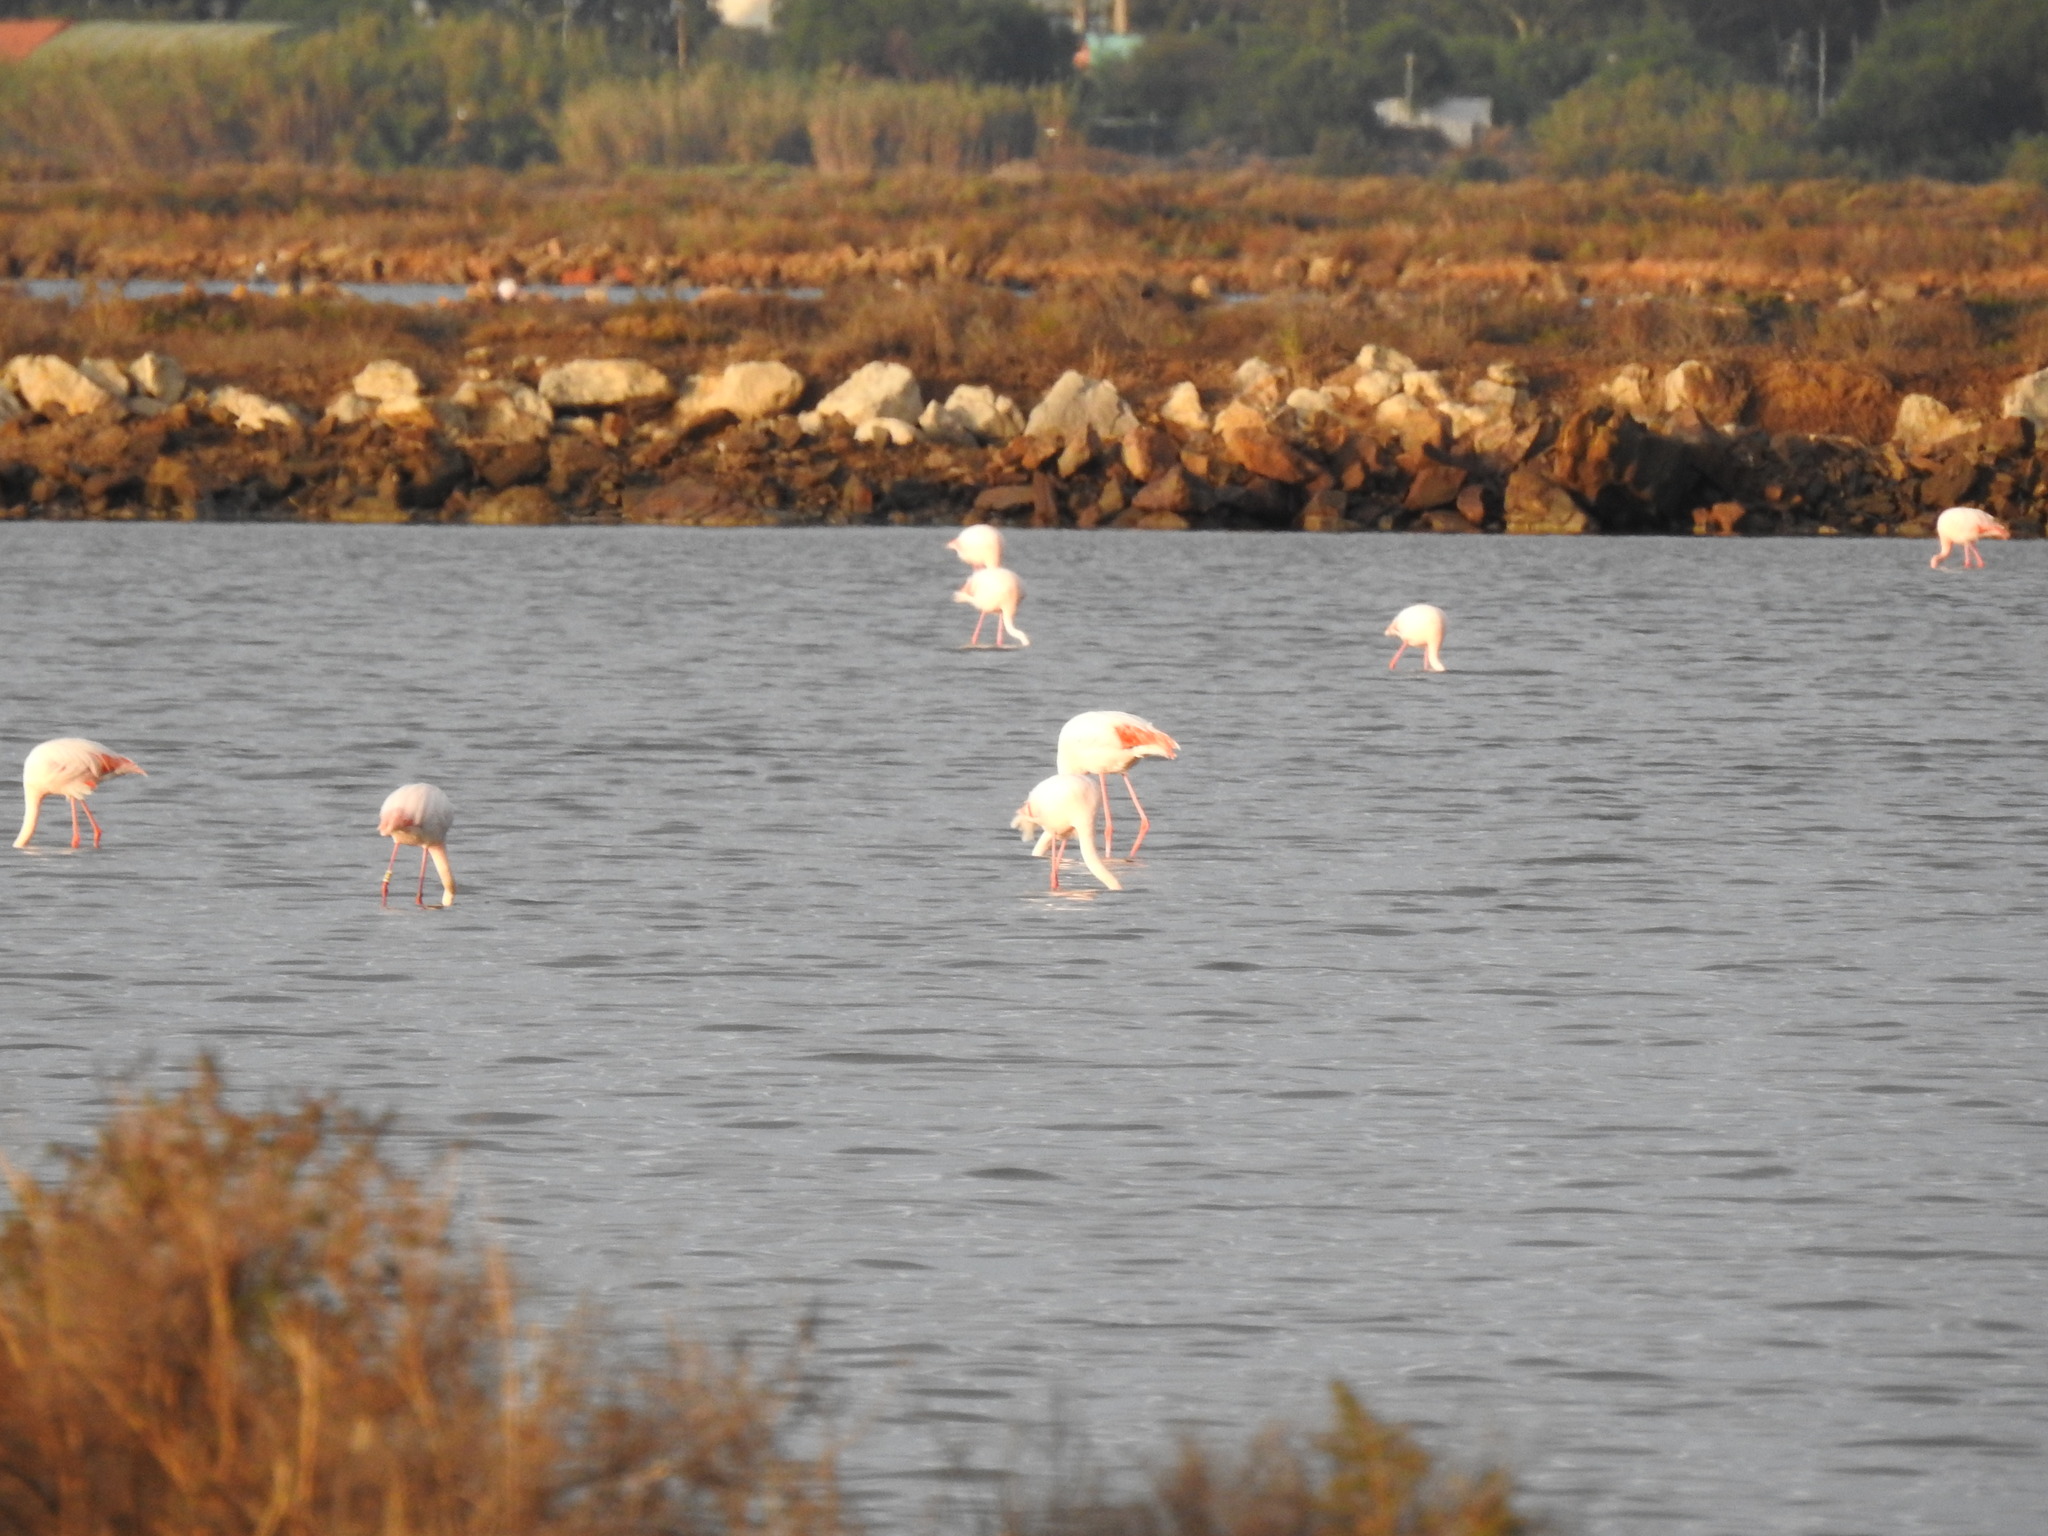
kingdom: Animalia
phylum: Chordata
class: Aves
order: Phoenicopteriformes
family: Phoenicopteridae
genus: Phoenicopterus
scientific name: Phoenicopterus roseus
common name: Greater flamingo
